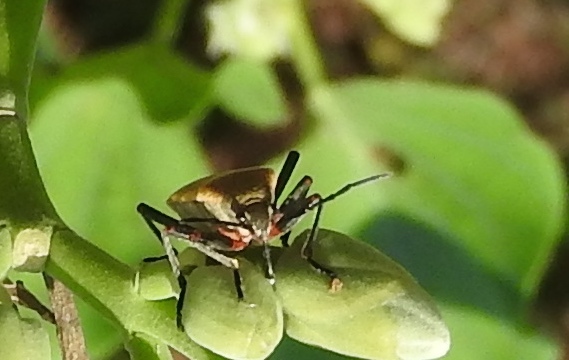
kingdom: Animalia
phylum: Arthropoda
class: Insecta
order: Hemiptera
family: Largidae
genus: Largus
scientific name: Largus
